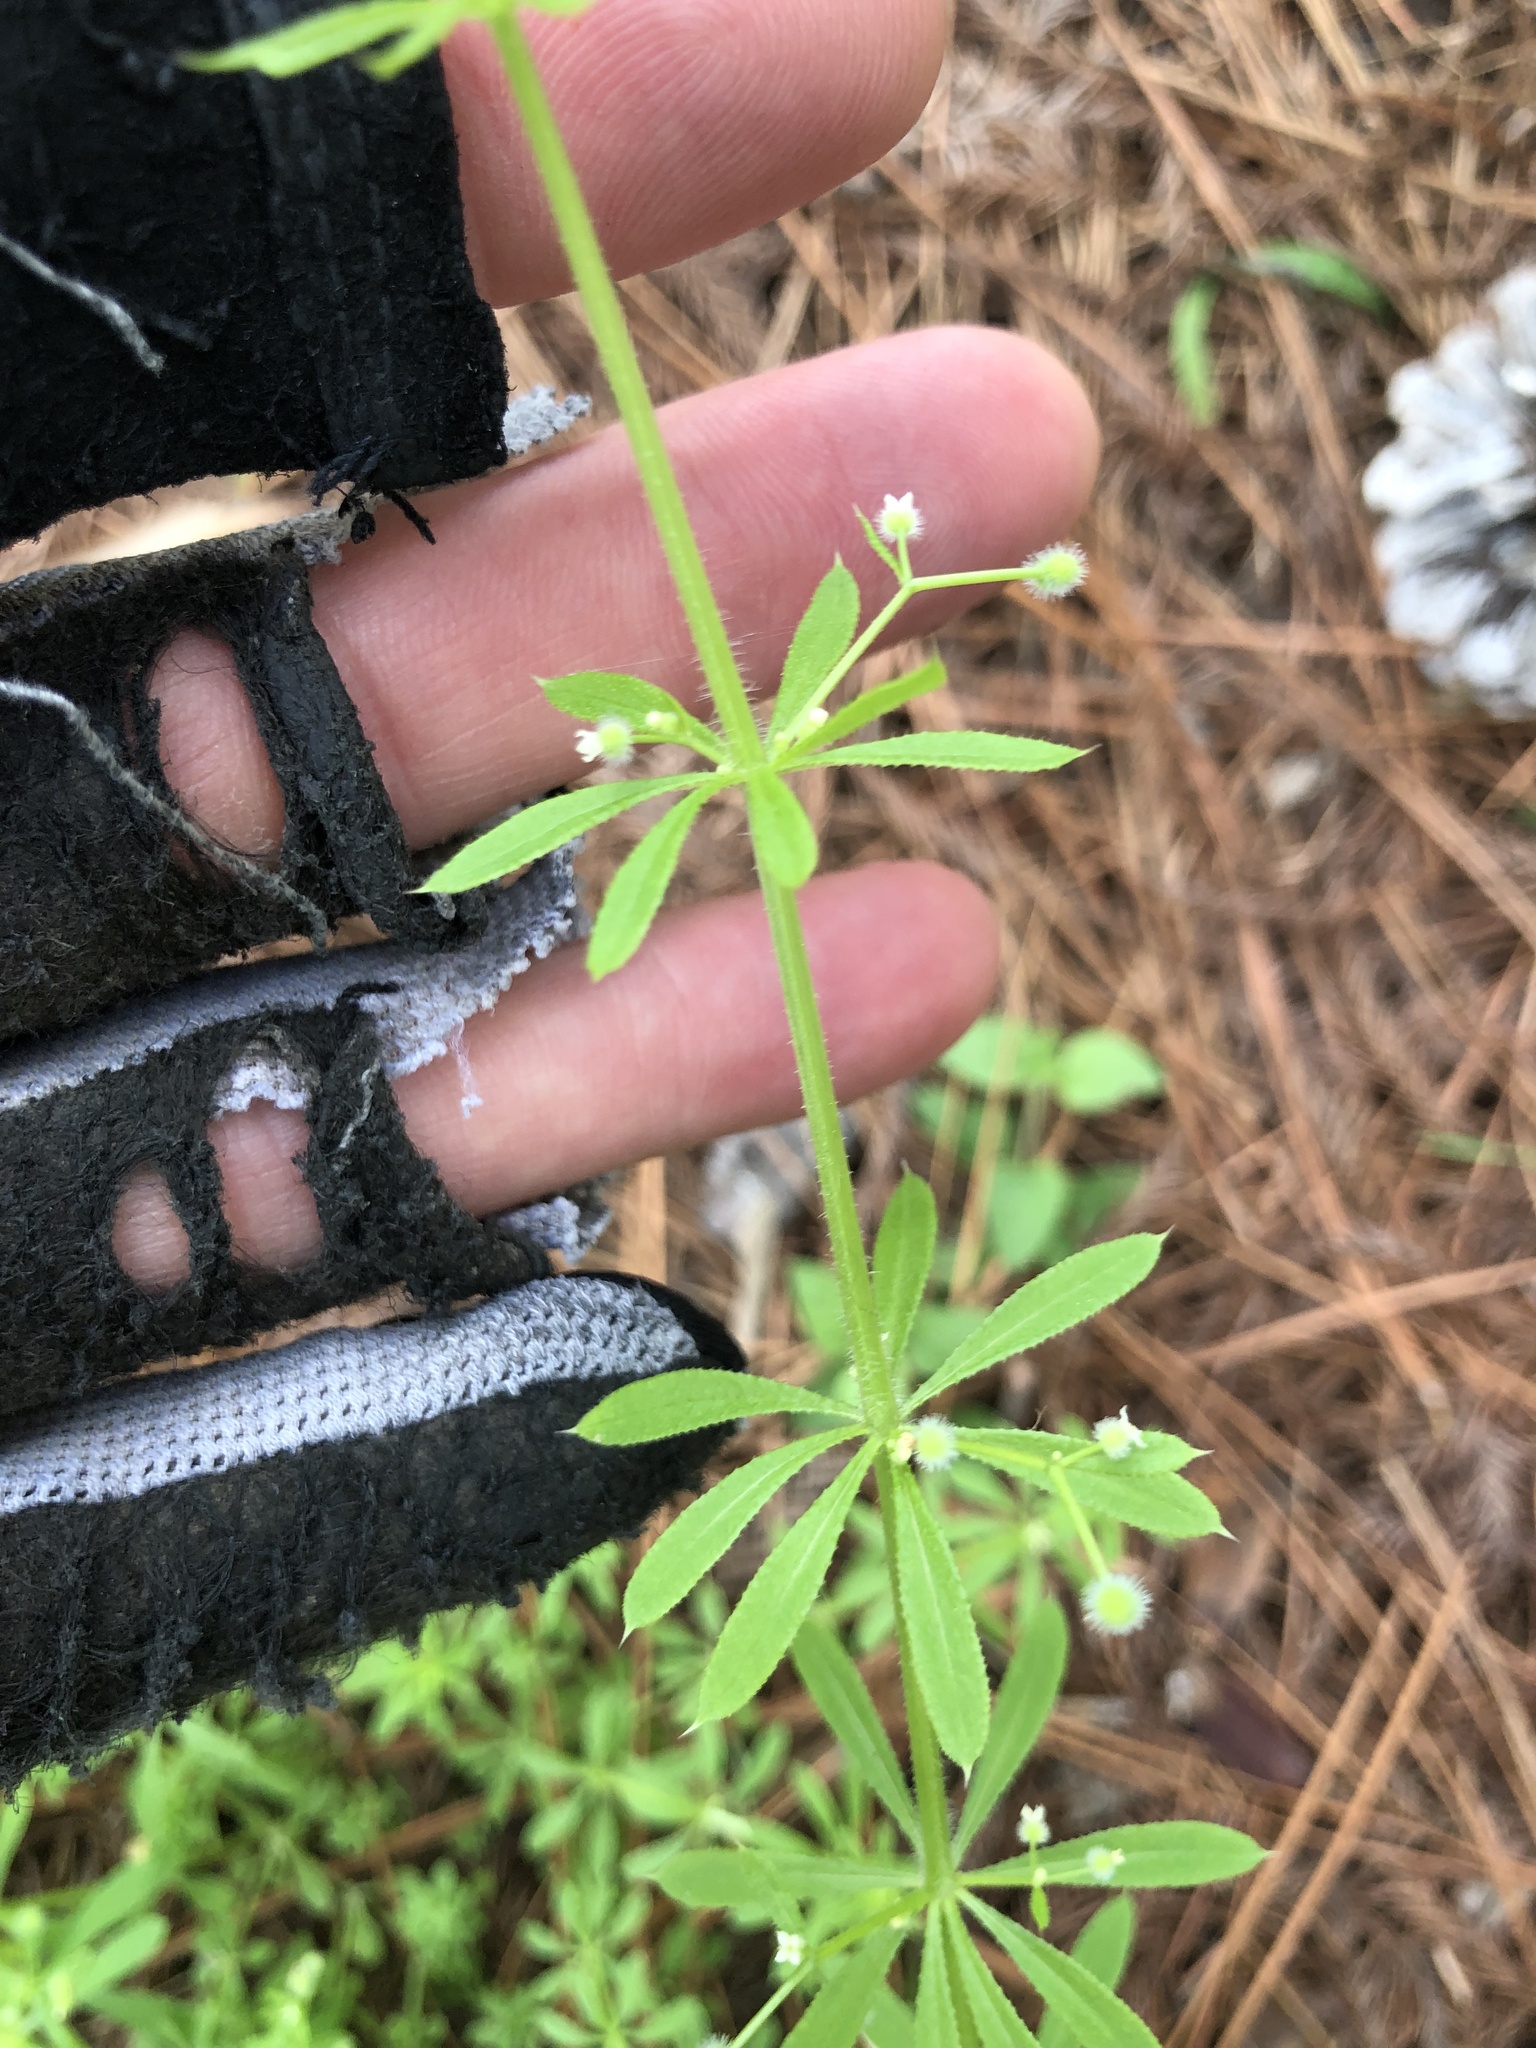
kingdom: Plantae
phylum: Tracheophyta
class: Magnoliopsida
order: Gentianales
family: Rubiaceae
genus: Galium
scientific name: Galium aparine
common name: Cleavers
